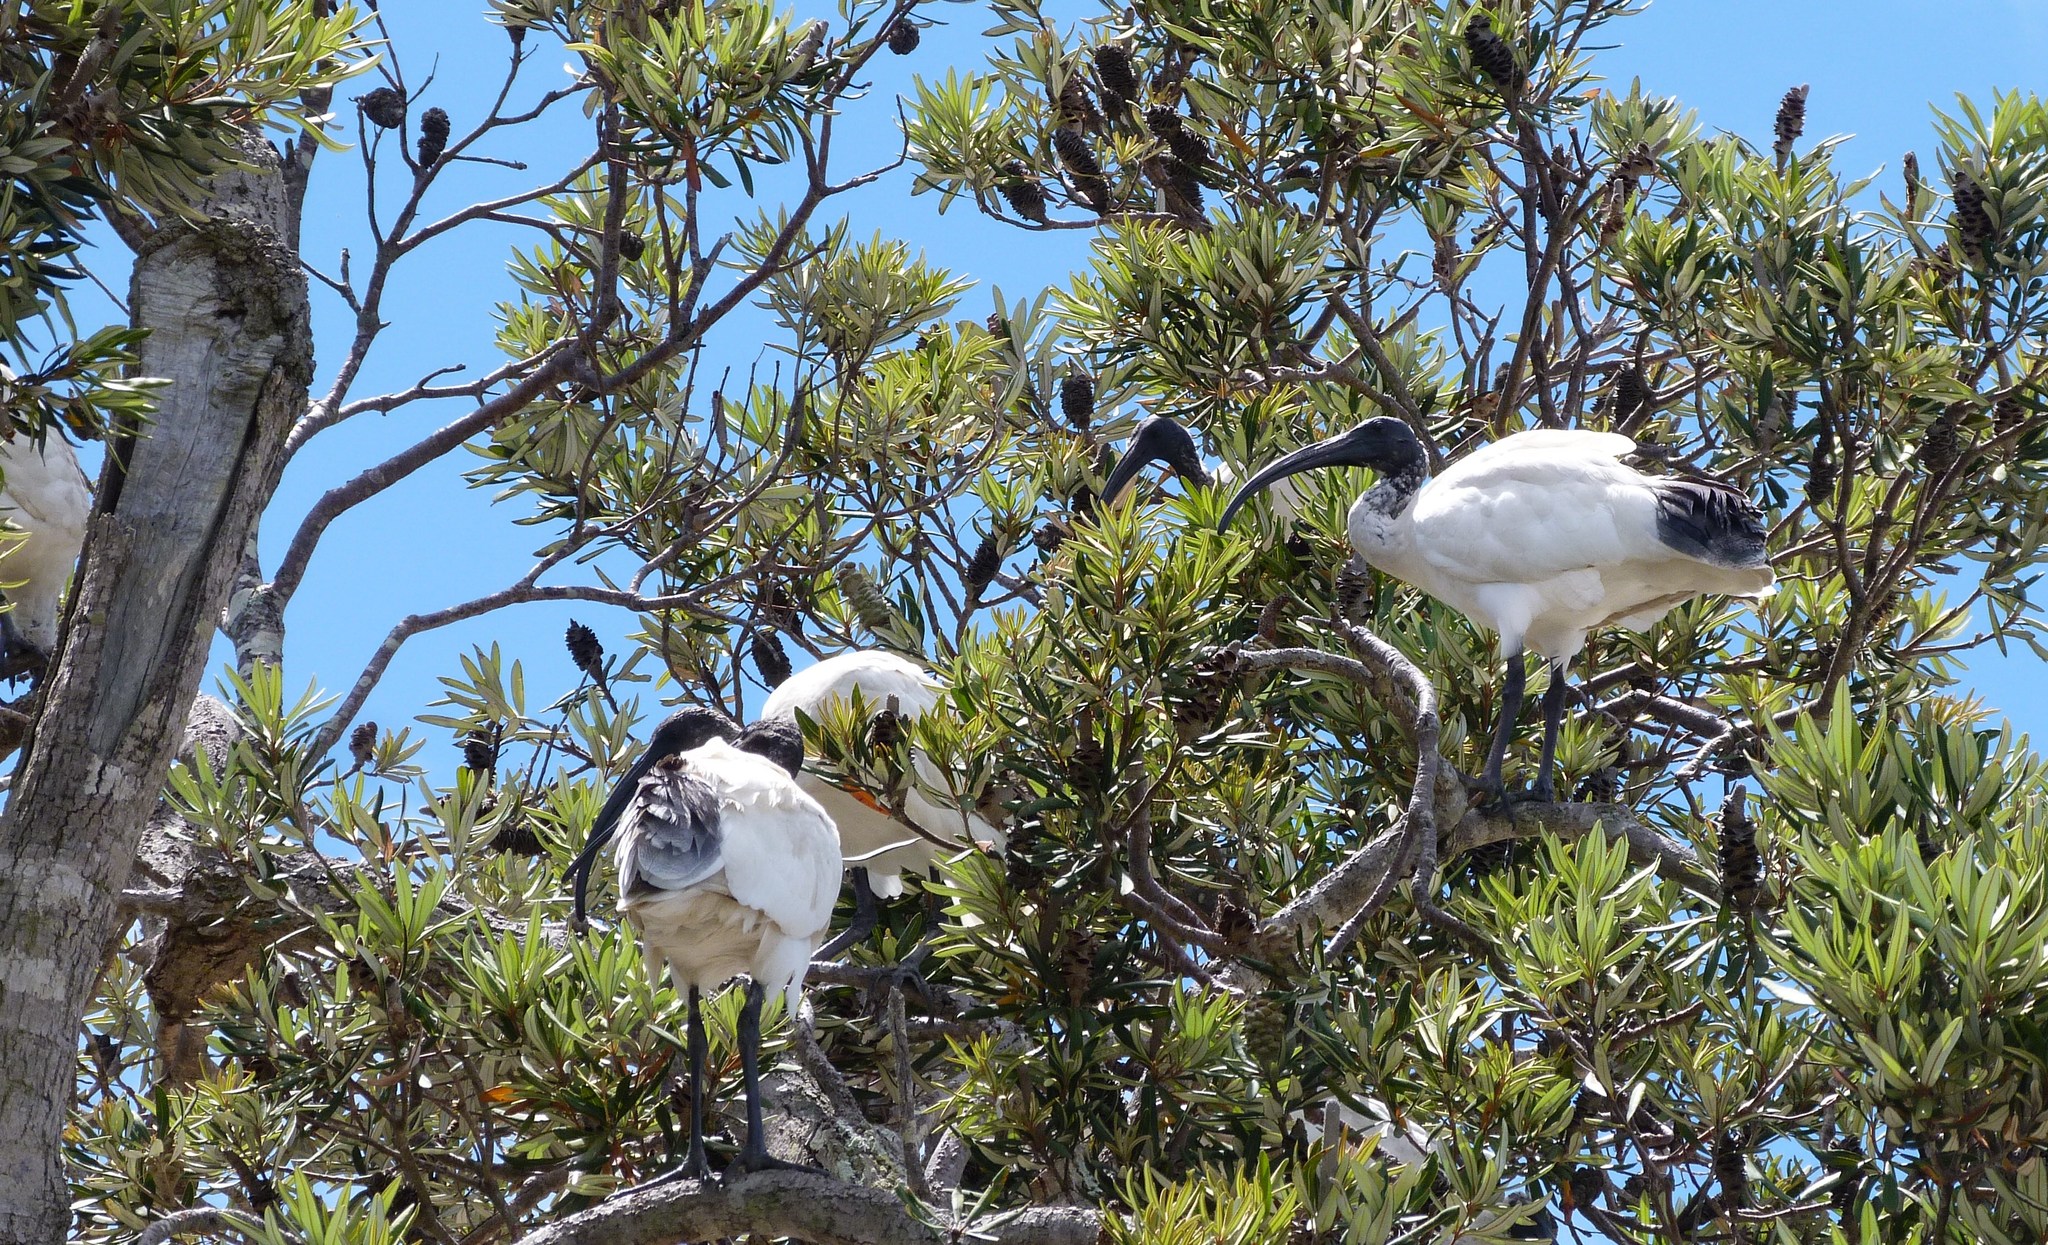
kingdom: Animalia
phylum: Chordata
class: Aves
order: Pelecaniformes
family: Threskiornithidae
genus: Threskiornis
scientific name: Threskiornis molucca
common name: Australian white ibis
